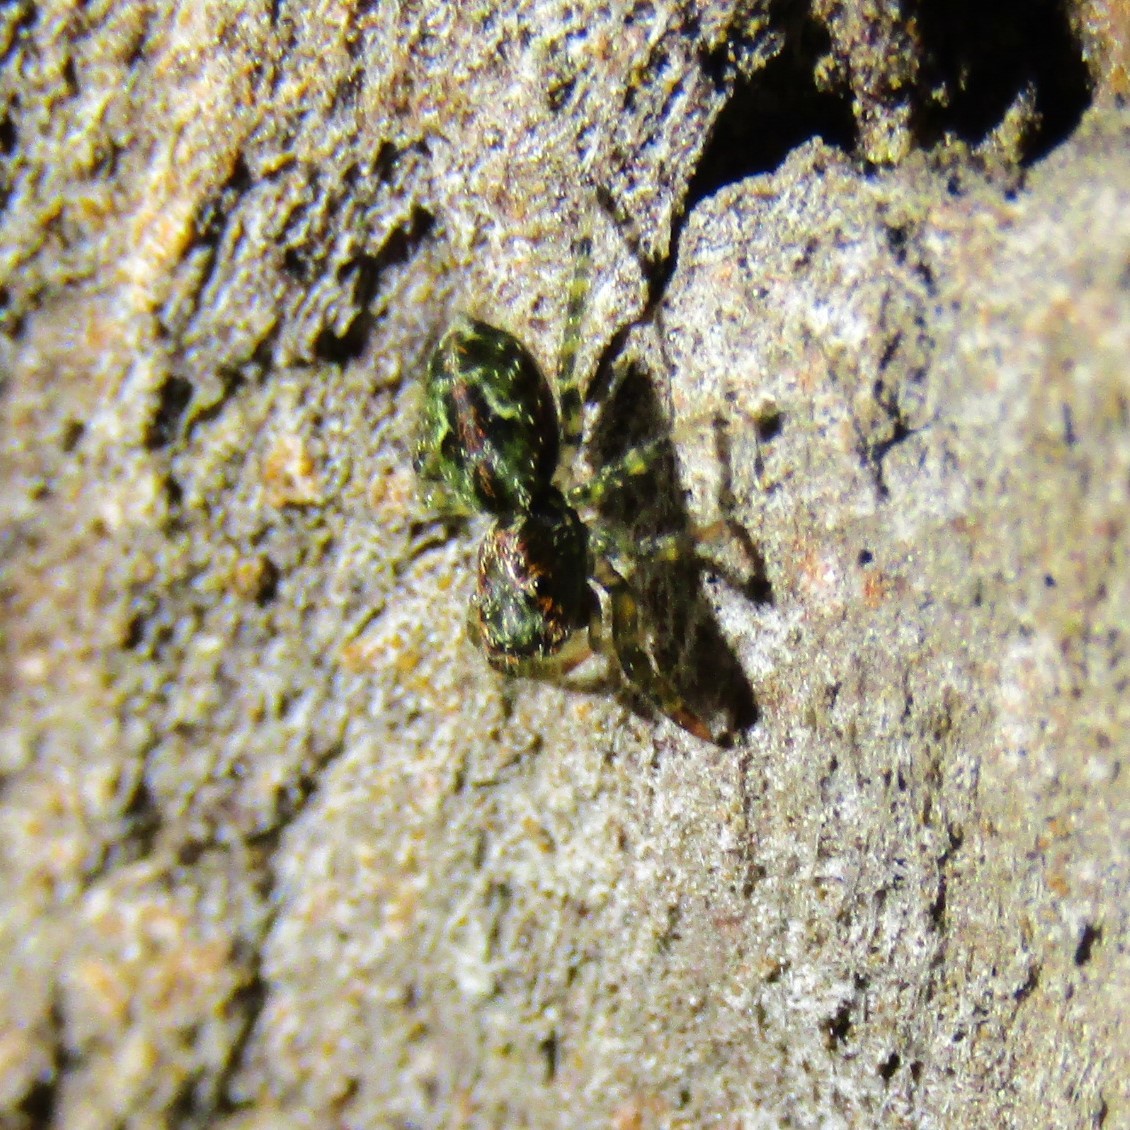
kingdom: Animalia
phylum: Arthropoda
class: Arachnida
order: Araneae
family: Salticidae
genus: Hinewaia
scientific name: Hinewaia embolica
